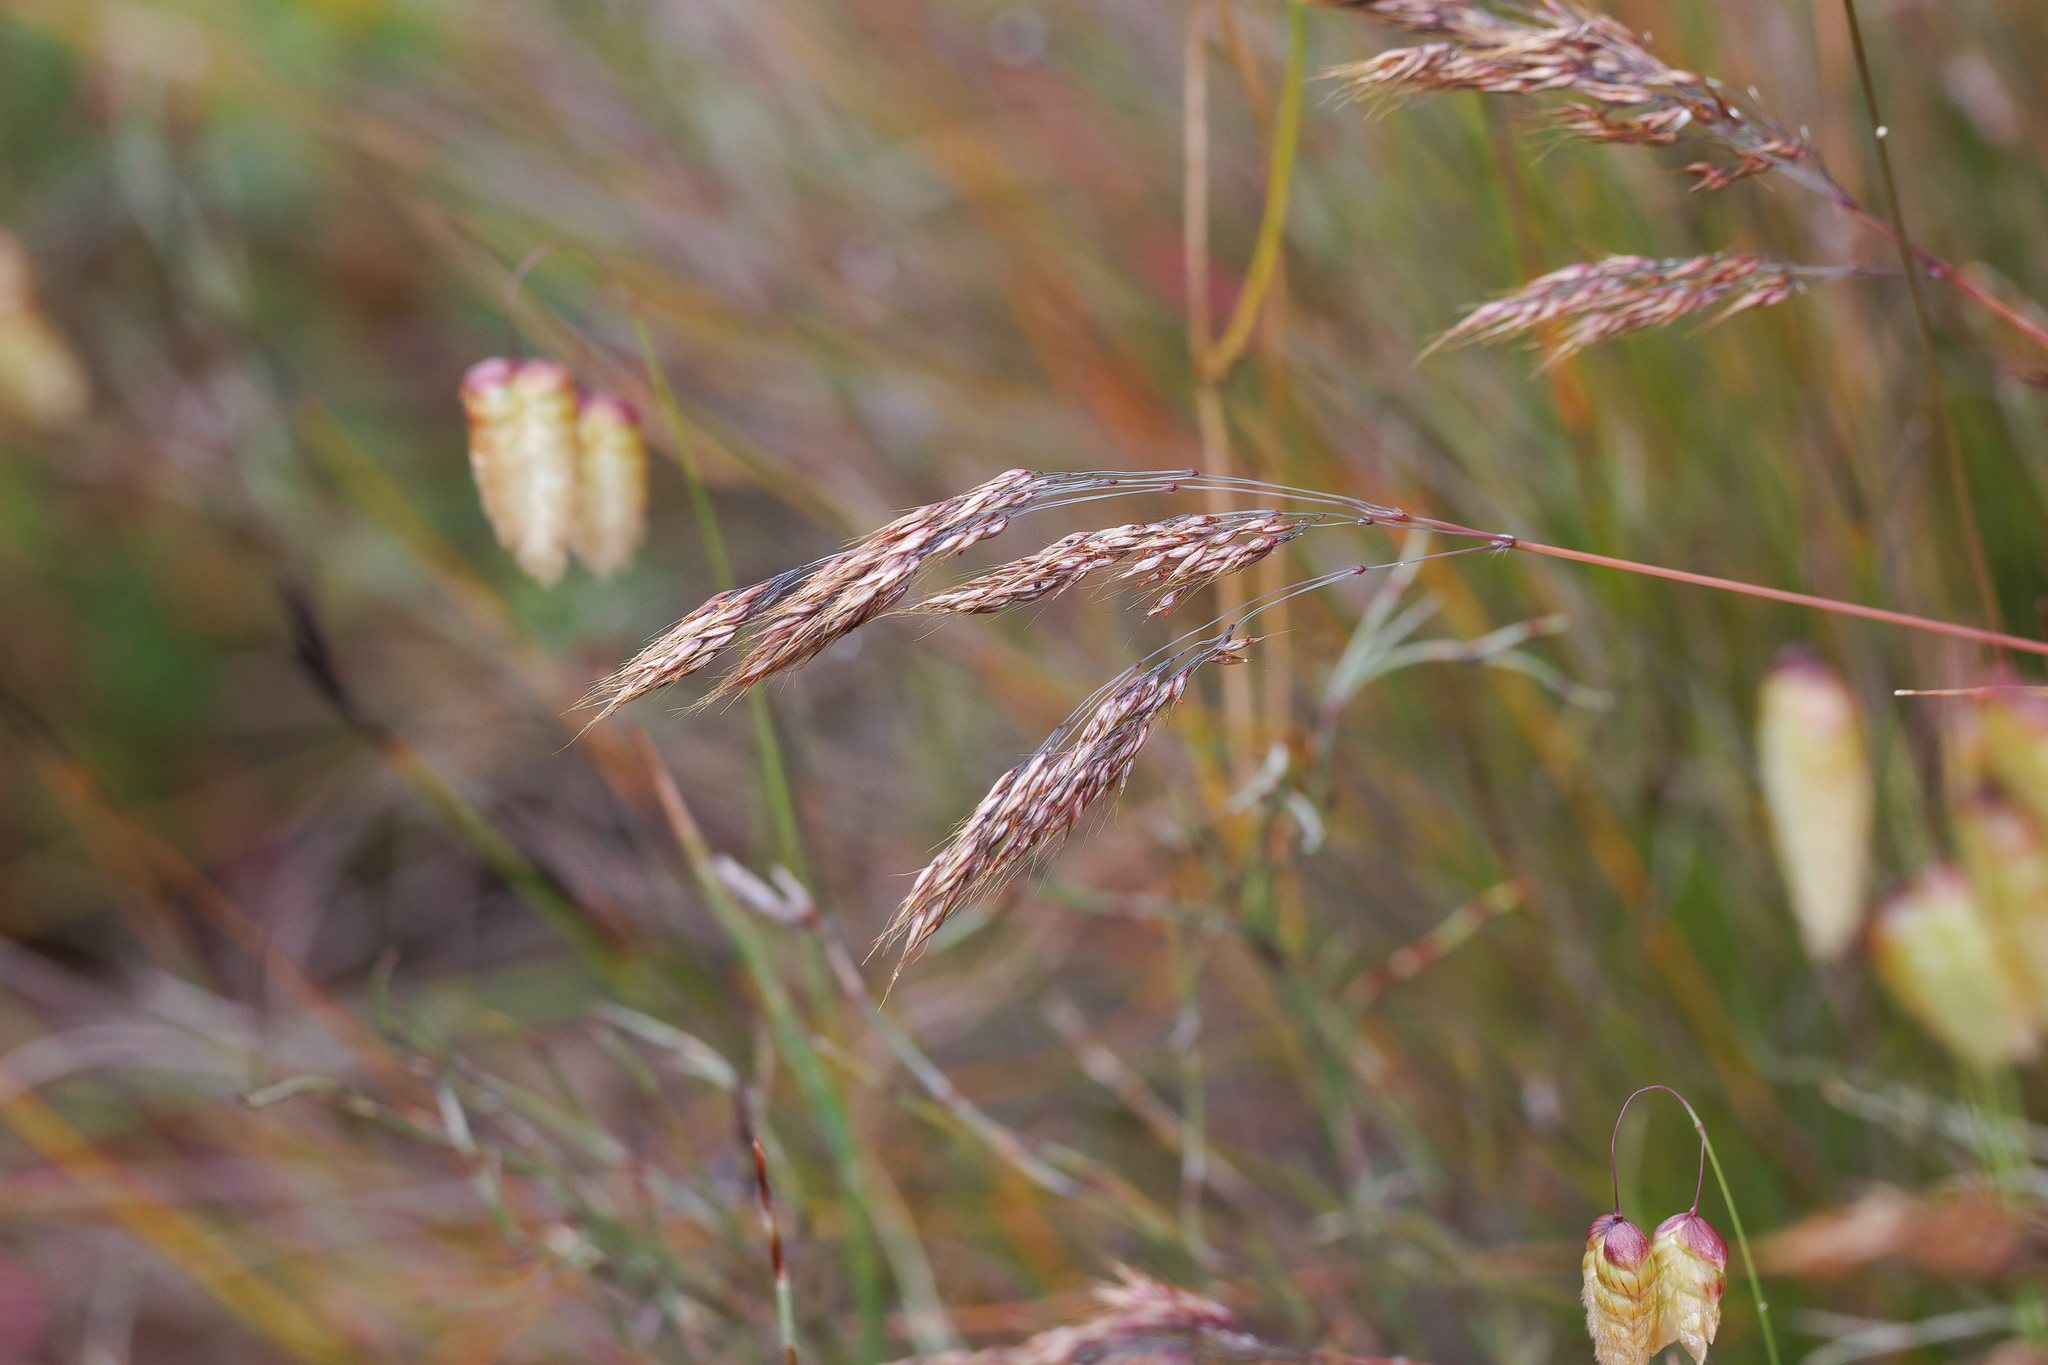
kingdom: Plantae
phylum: Tracheophyta
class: Liliopsida
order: Poales
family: Poaceae
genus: Pentameris
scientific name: Pentameris pallida
